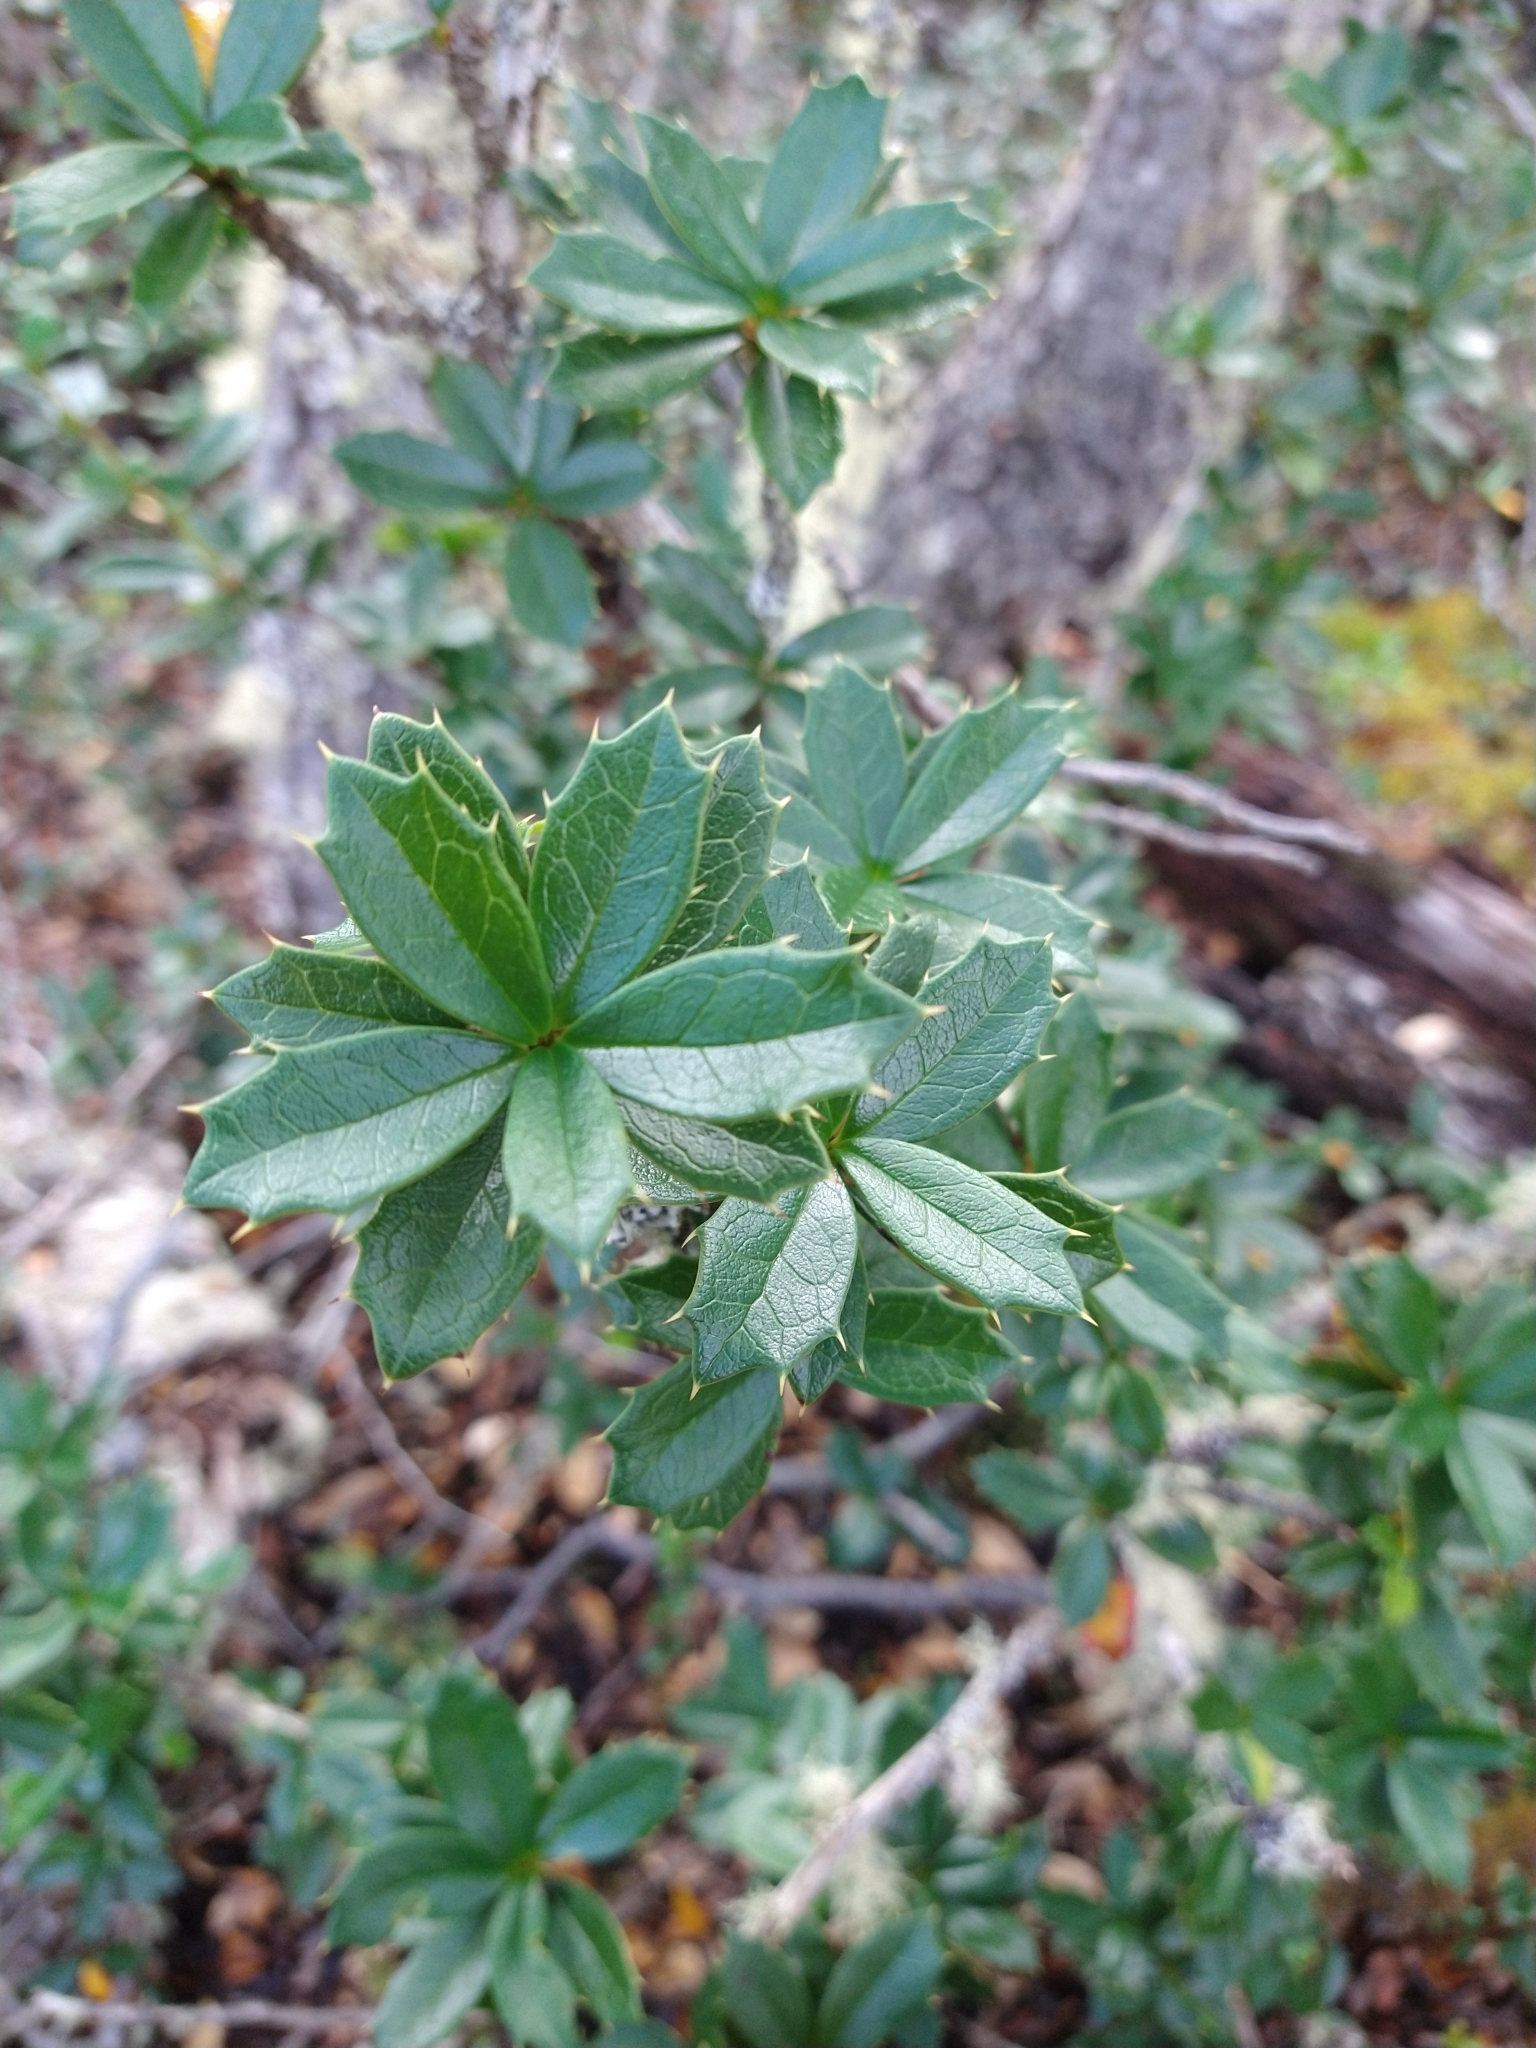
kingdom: Plantae
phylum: Tracheophyta
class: Magnoliopsida
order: Ranunculales
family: Berberidaceae
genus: Berberis
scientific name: Berberis ilicifolia
